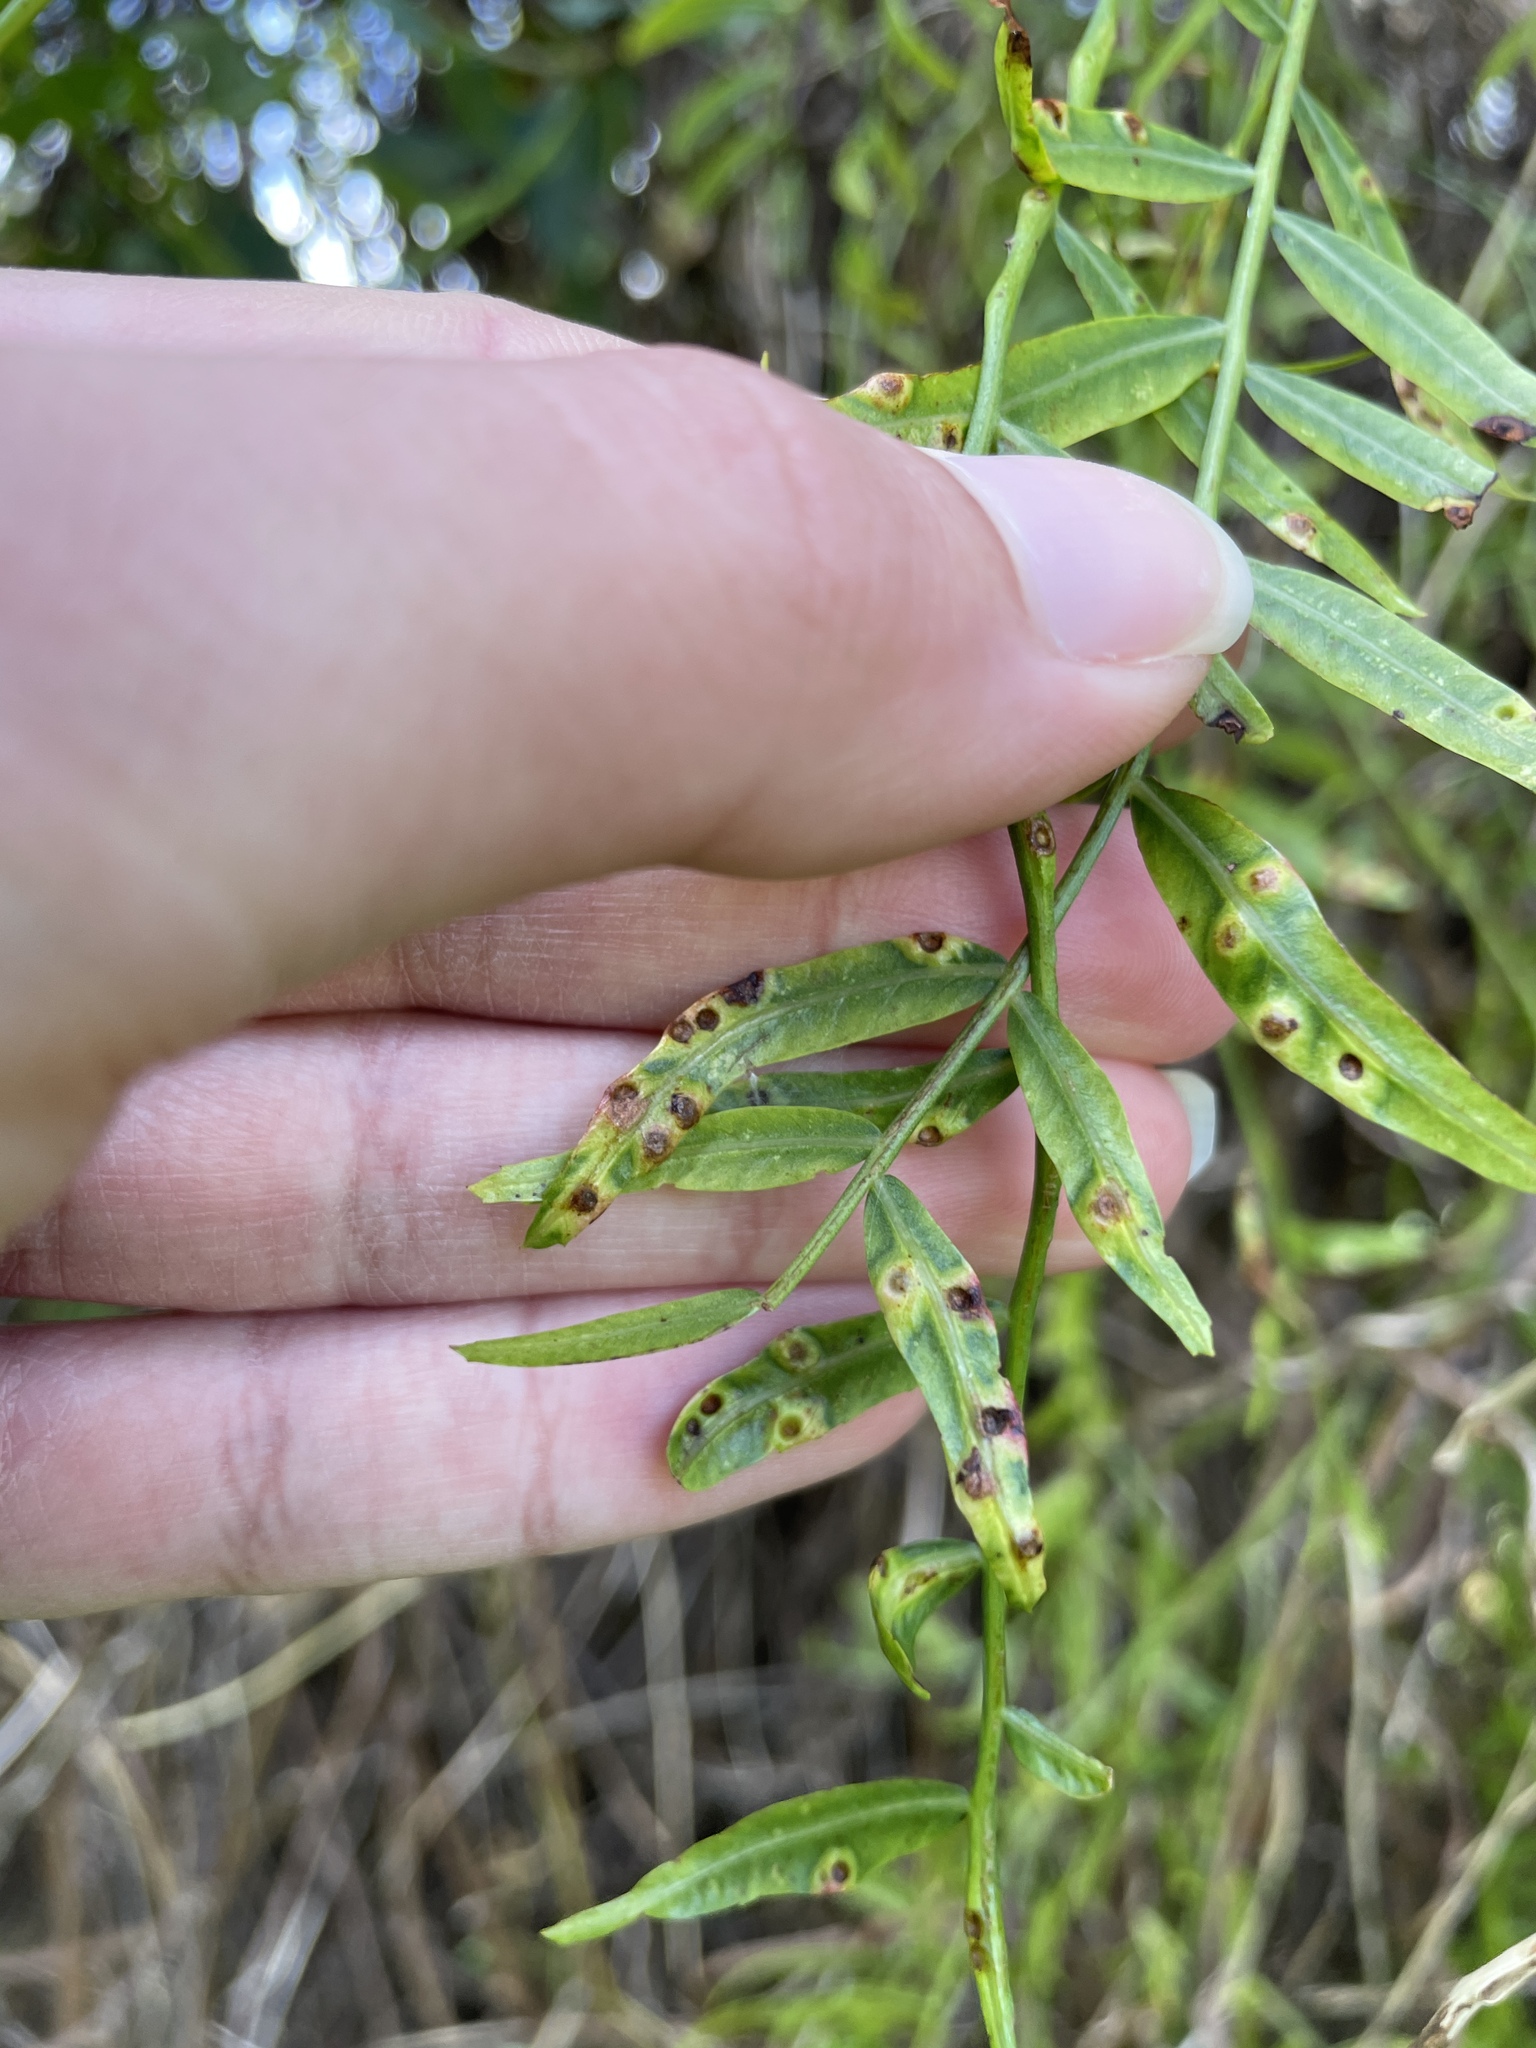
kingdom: Animalia
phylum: Arthropoda
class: Insecta
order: Hemiptera
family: Calophyidae
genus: Calophya
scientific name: Calophya schini
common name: Pepper tree psyllid
